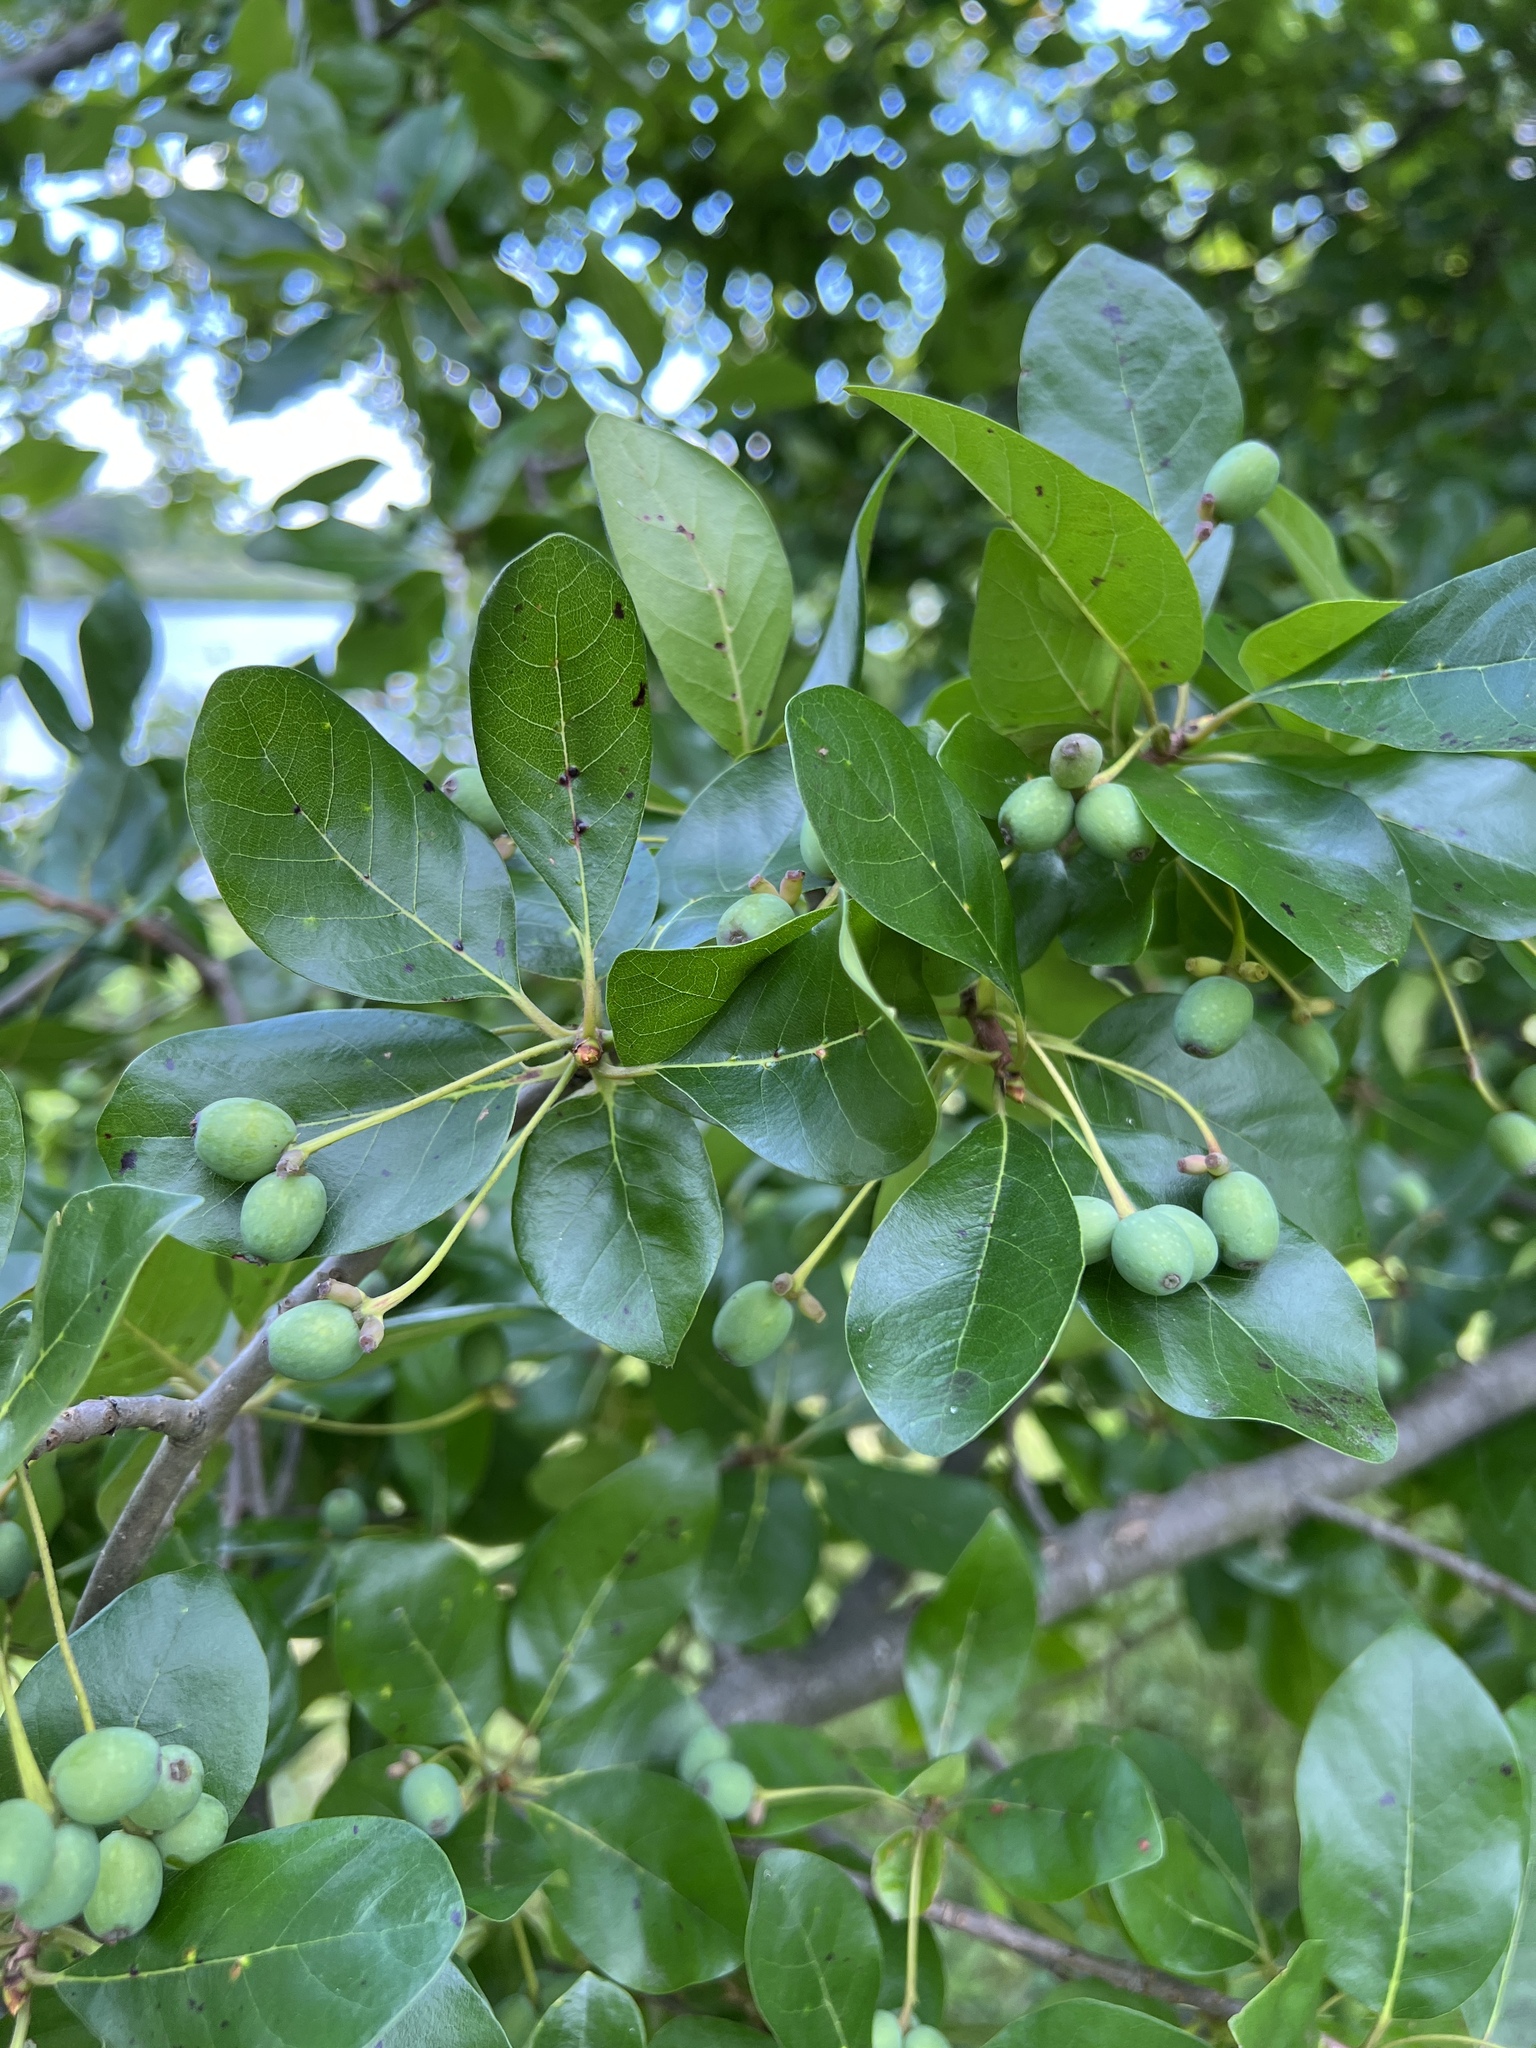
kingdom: Plantae
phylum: Tracheophyta
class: Magnoliopsida
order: Cornales
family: Nyssaceae
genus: Nyssa
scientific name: Nyssa sylvatica
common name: Black tupelo
